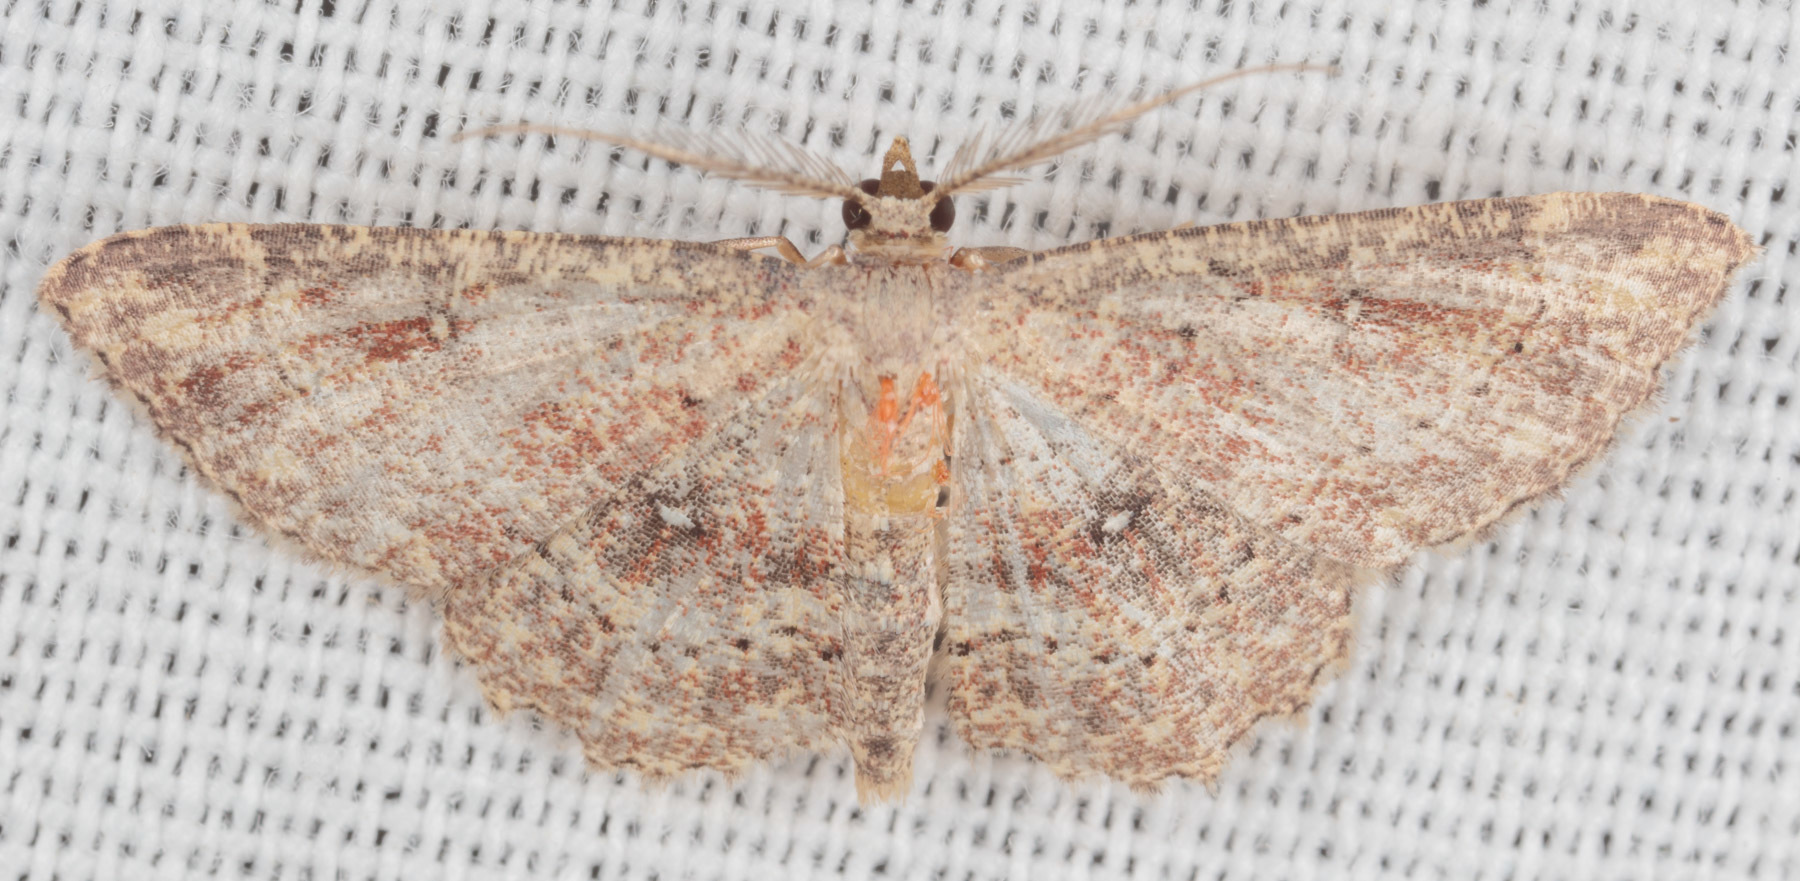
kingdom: Animalia
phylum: Arthropoda
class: Insecta
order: Lepidoptera
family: Geometridae
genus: Cyclophora
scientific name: Cyclophora nanaria
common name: Cankerworm
